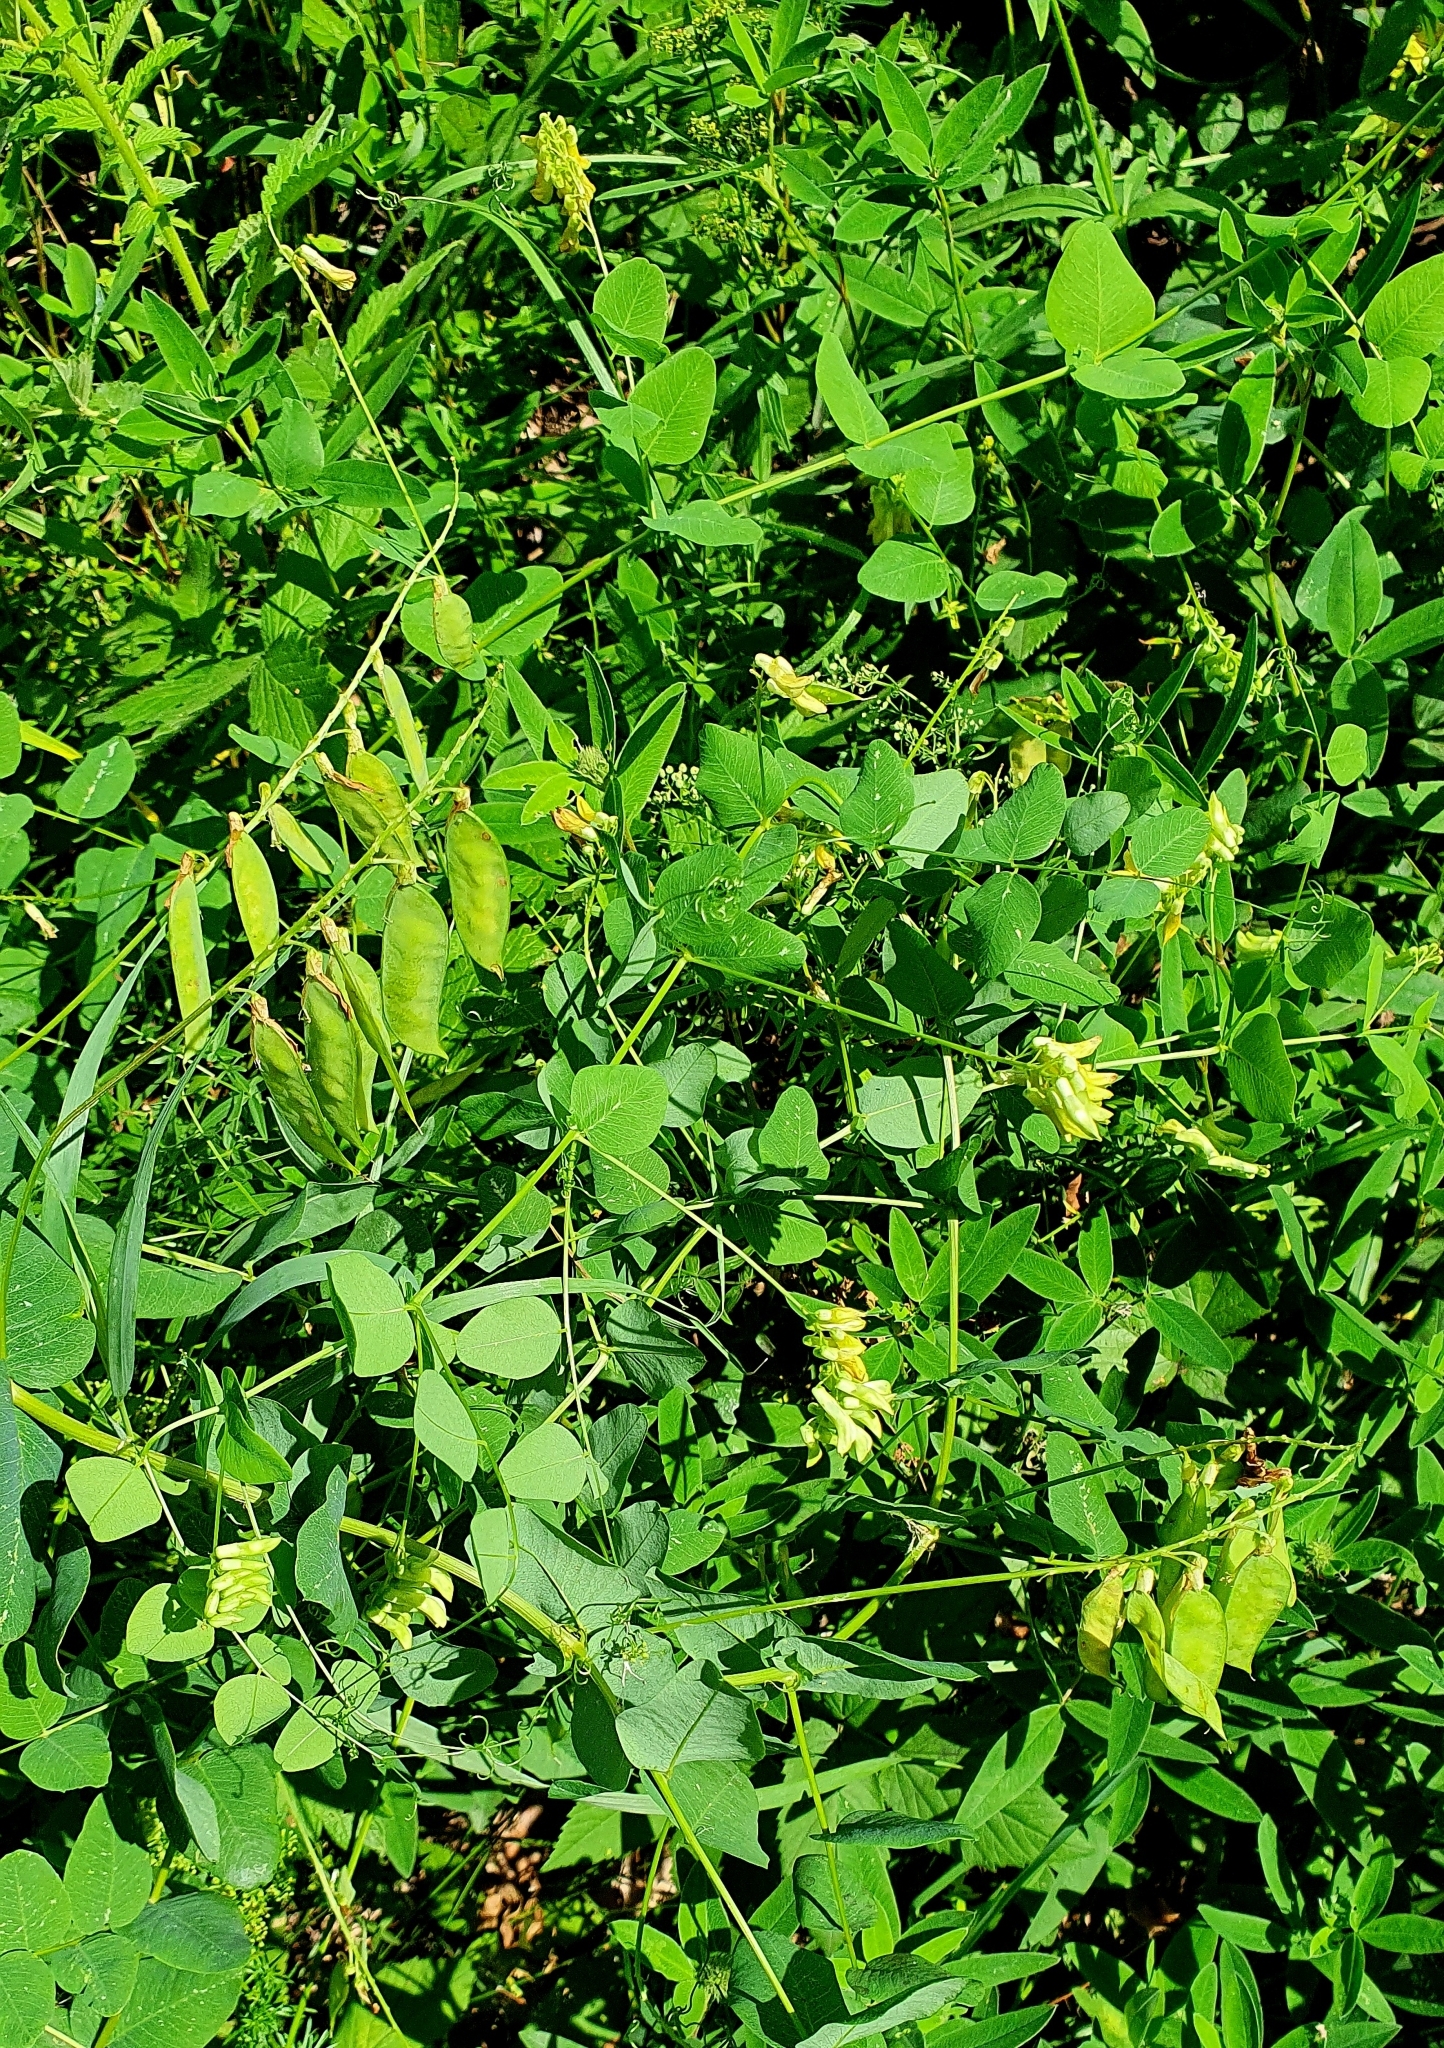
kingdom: Plantae
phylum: Tracheophyta
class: Magnoliopsida
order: Fabales
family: Fabaceae
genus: Vicia
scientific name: Vicia pisiformis
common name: Pale-flower vetch
